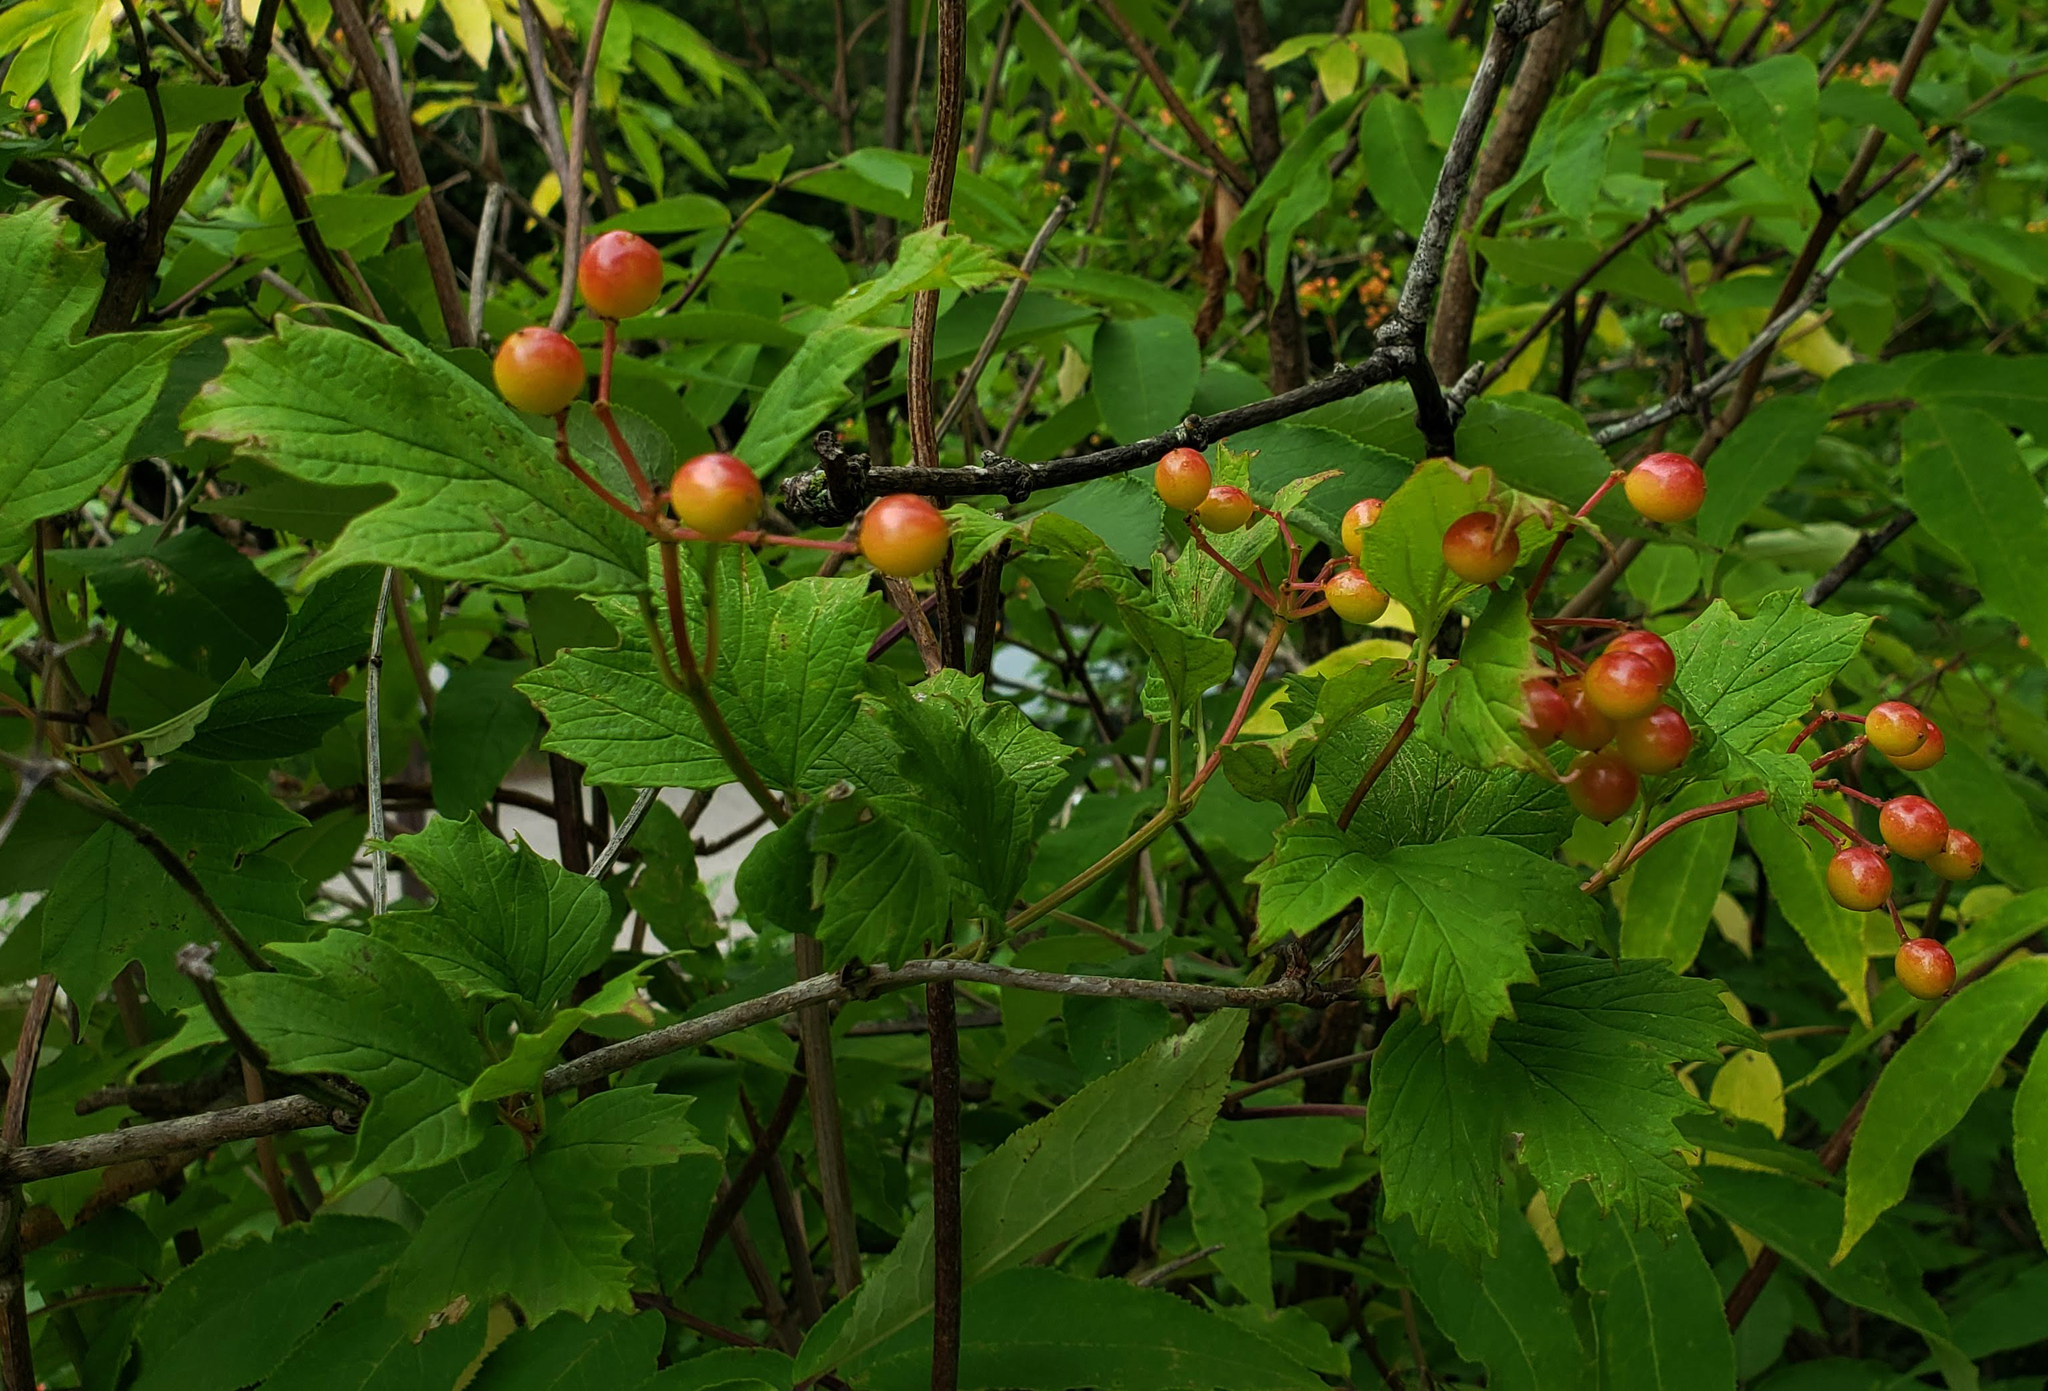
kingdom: Plantae
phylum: Tracheophyta
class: Magnoliopsida
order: Dipsacales
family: Viburnaceae
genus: Viburnum
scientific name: Viburnum opulus
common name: Guelder-rose
